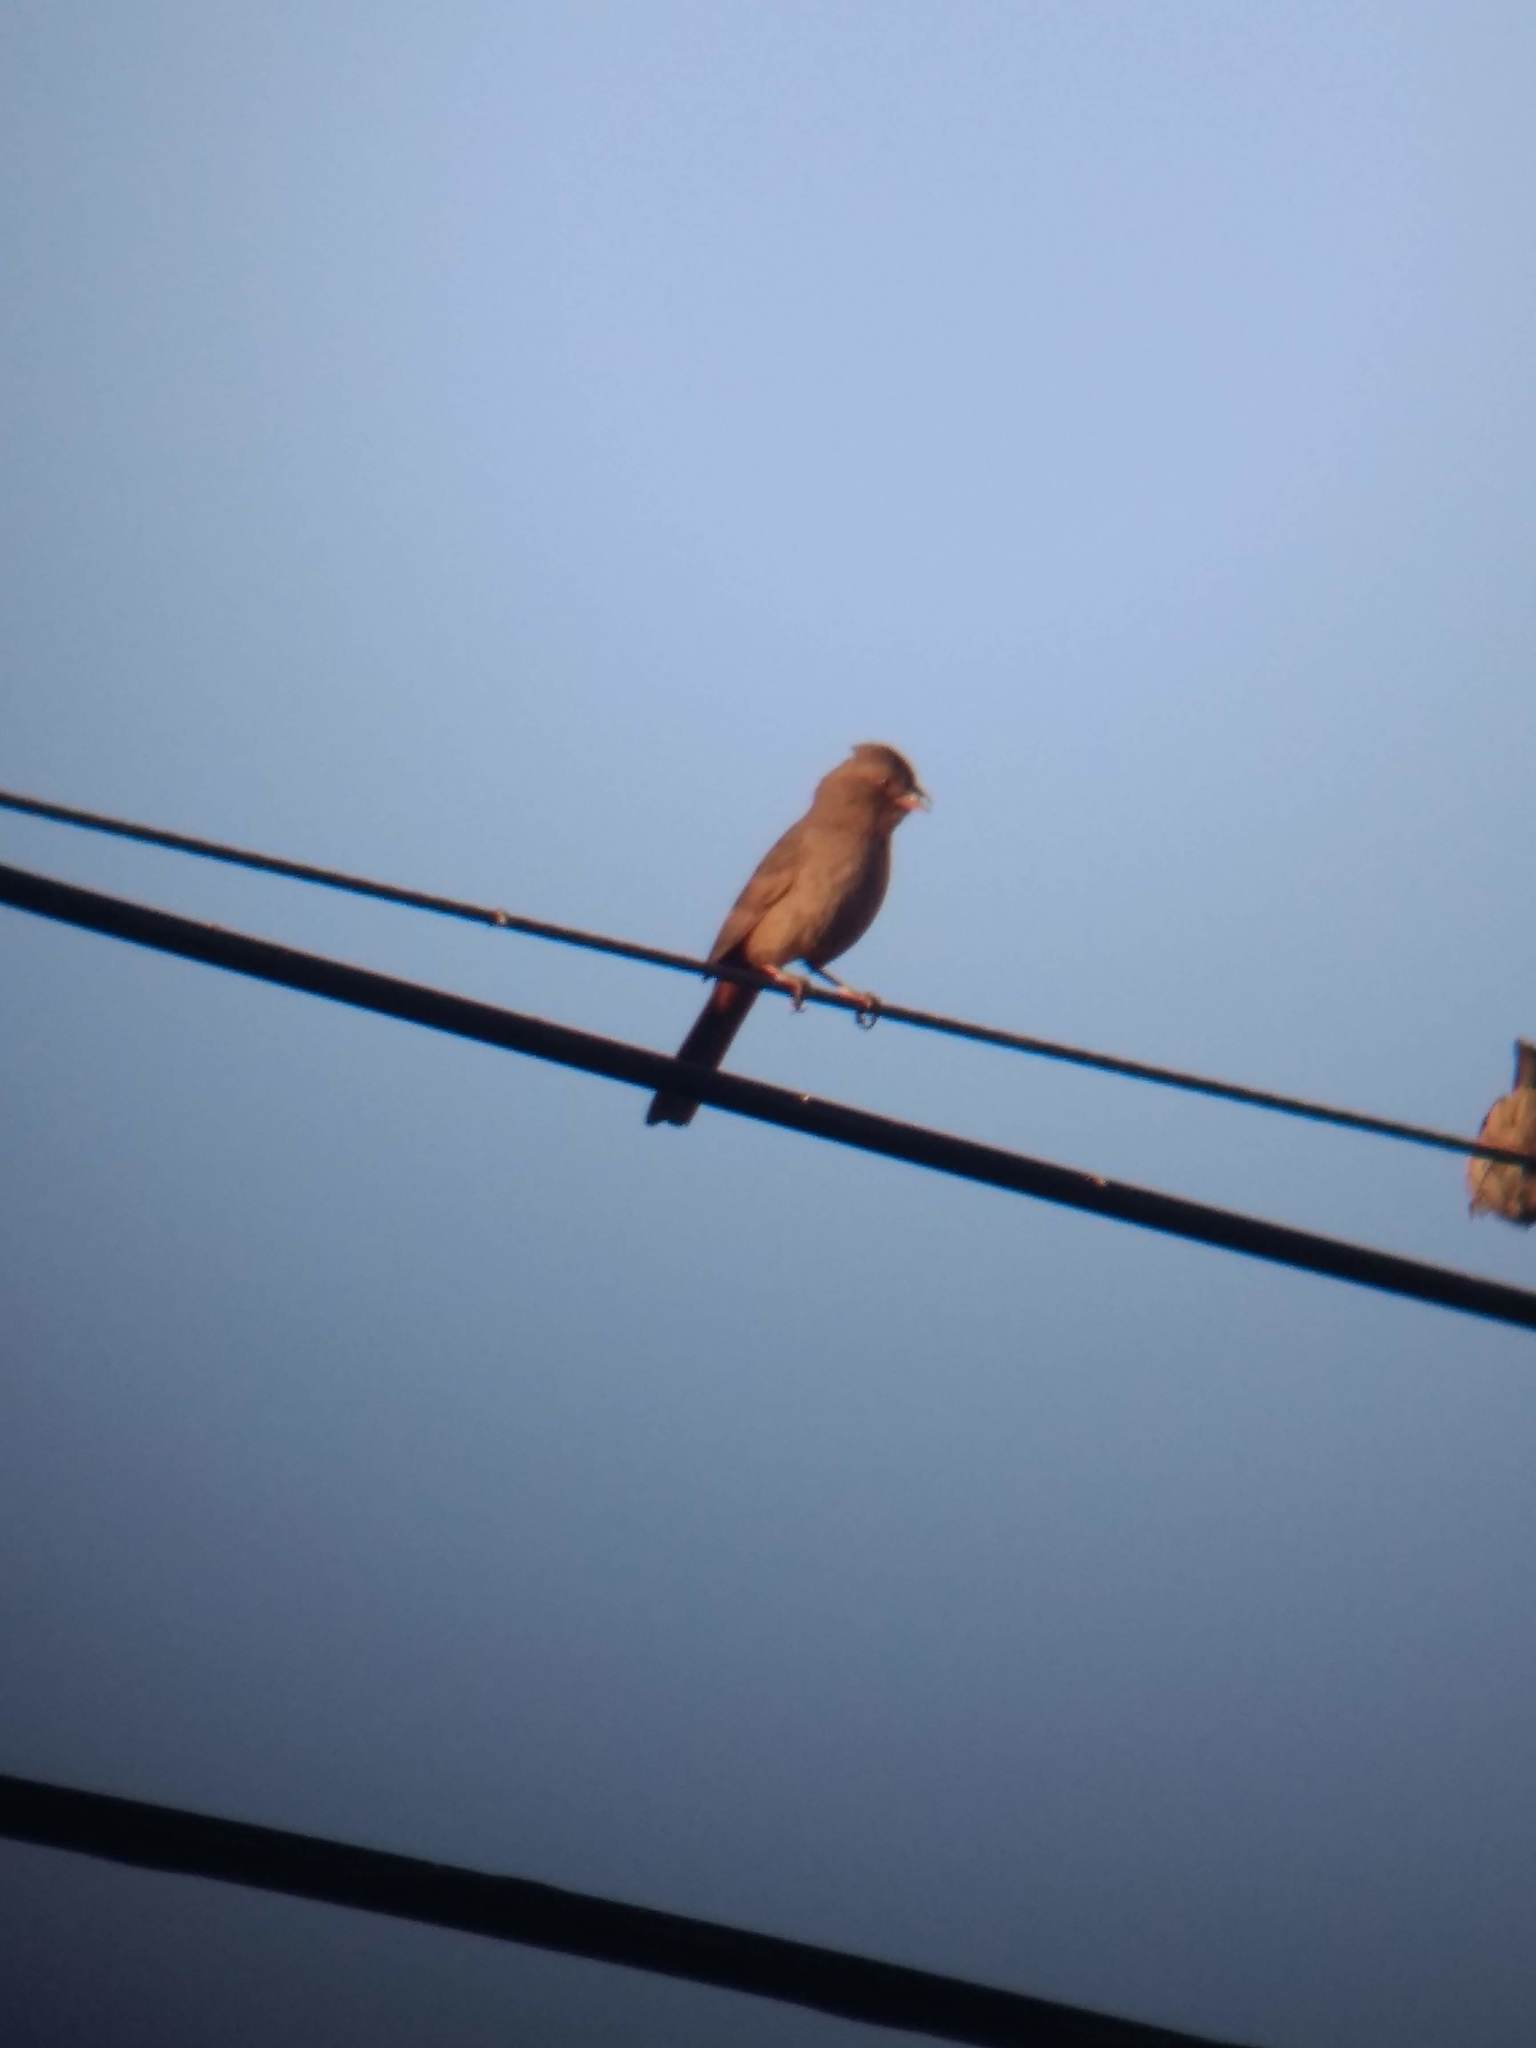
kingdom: Animalia
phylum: Chordata
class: Aves
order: Passeriformes
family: Passerellidae
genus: Melozone
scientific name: Melozone crissalis
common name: California towhee
